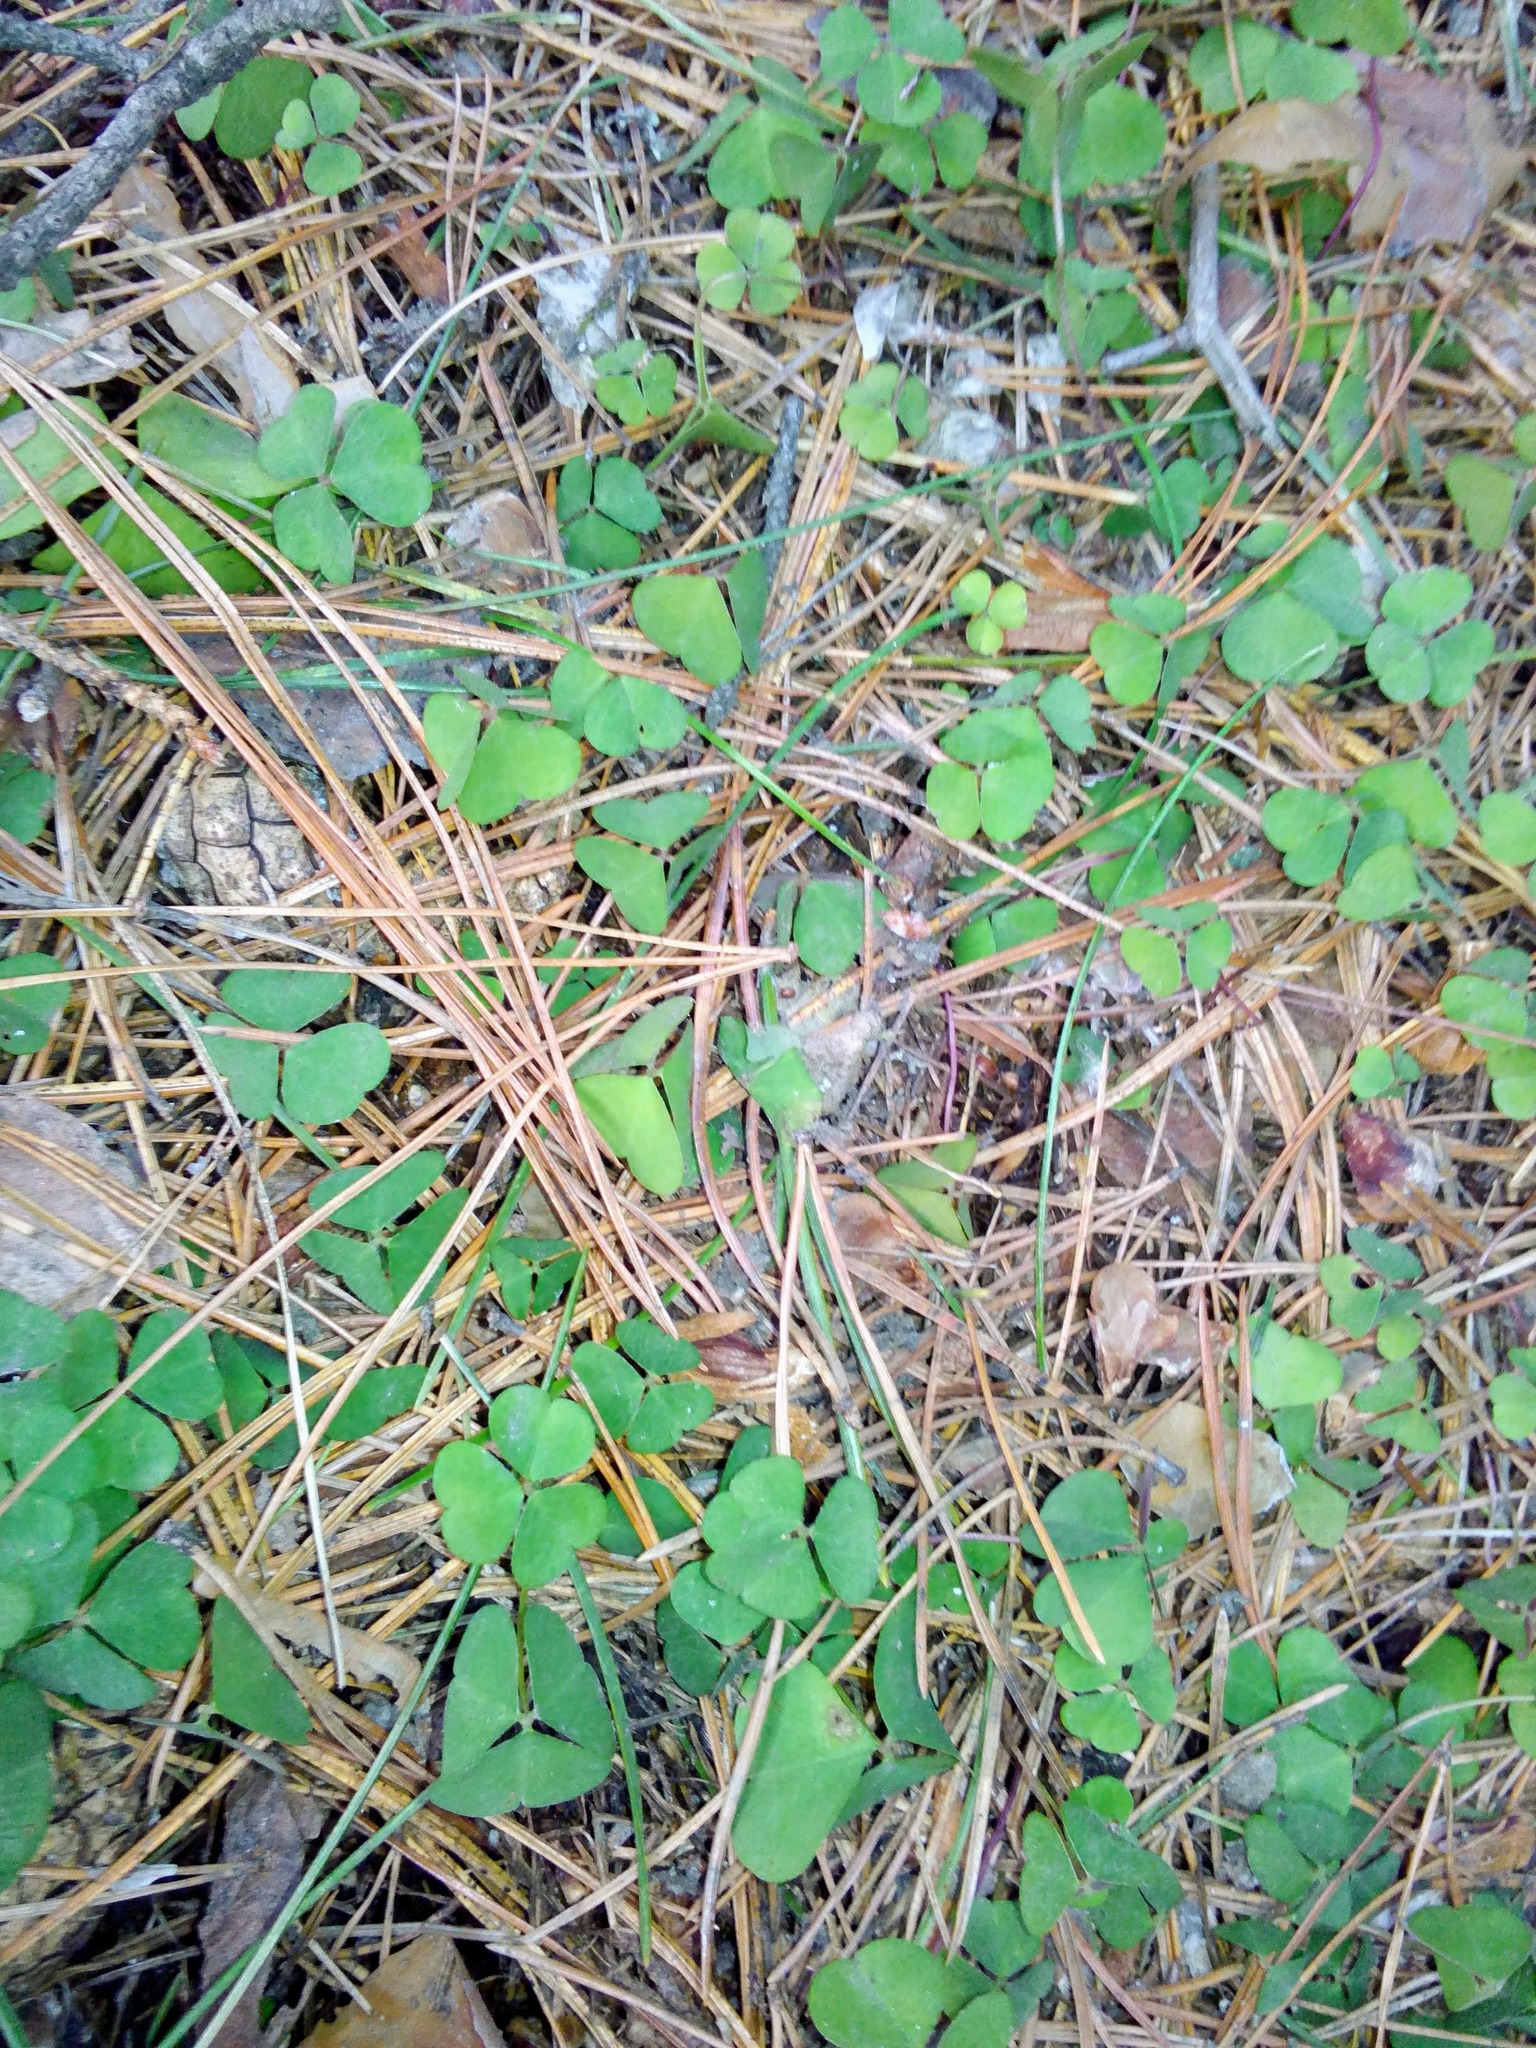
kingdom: Plantae
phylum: Tracheophyta
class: Magnoliopsida
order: Oxalidales
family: Oxalidaceae
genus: Oxalis
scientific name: Oxalis acetosella
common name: Wood-sorrel
